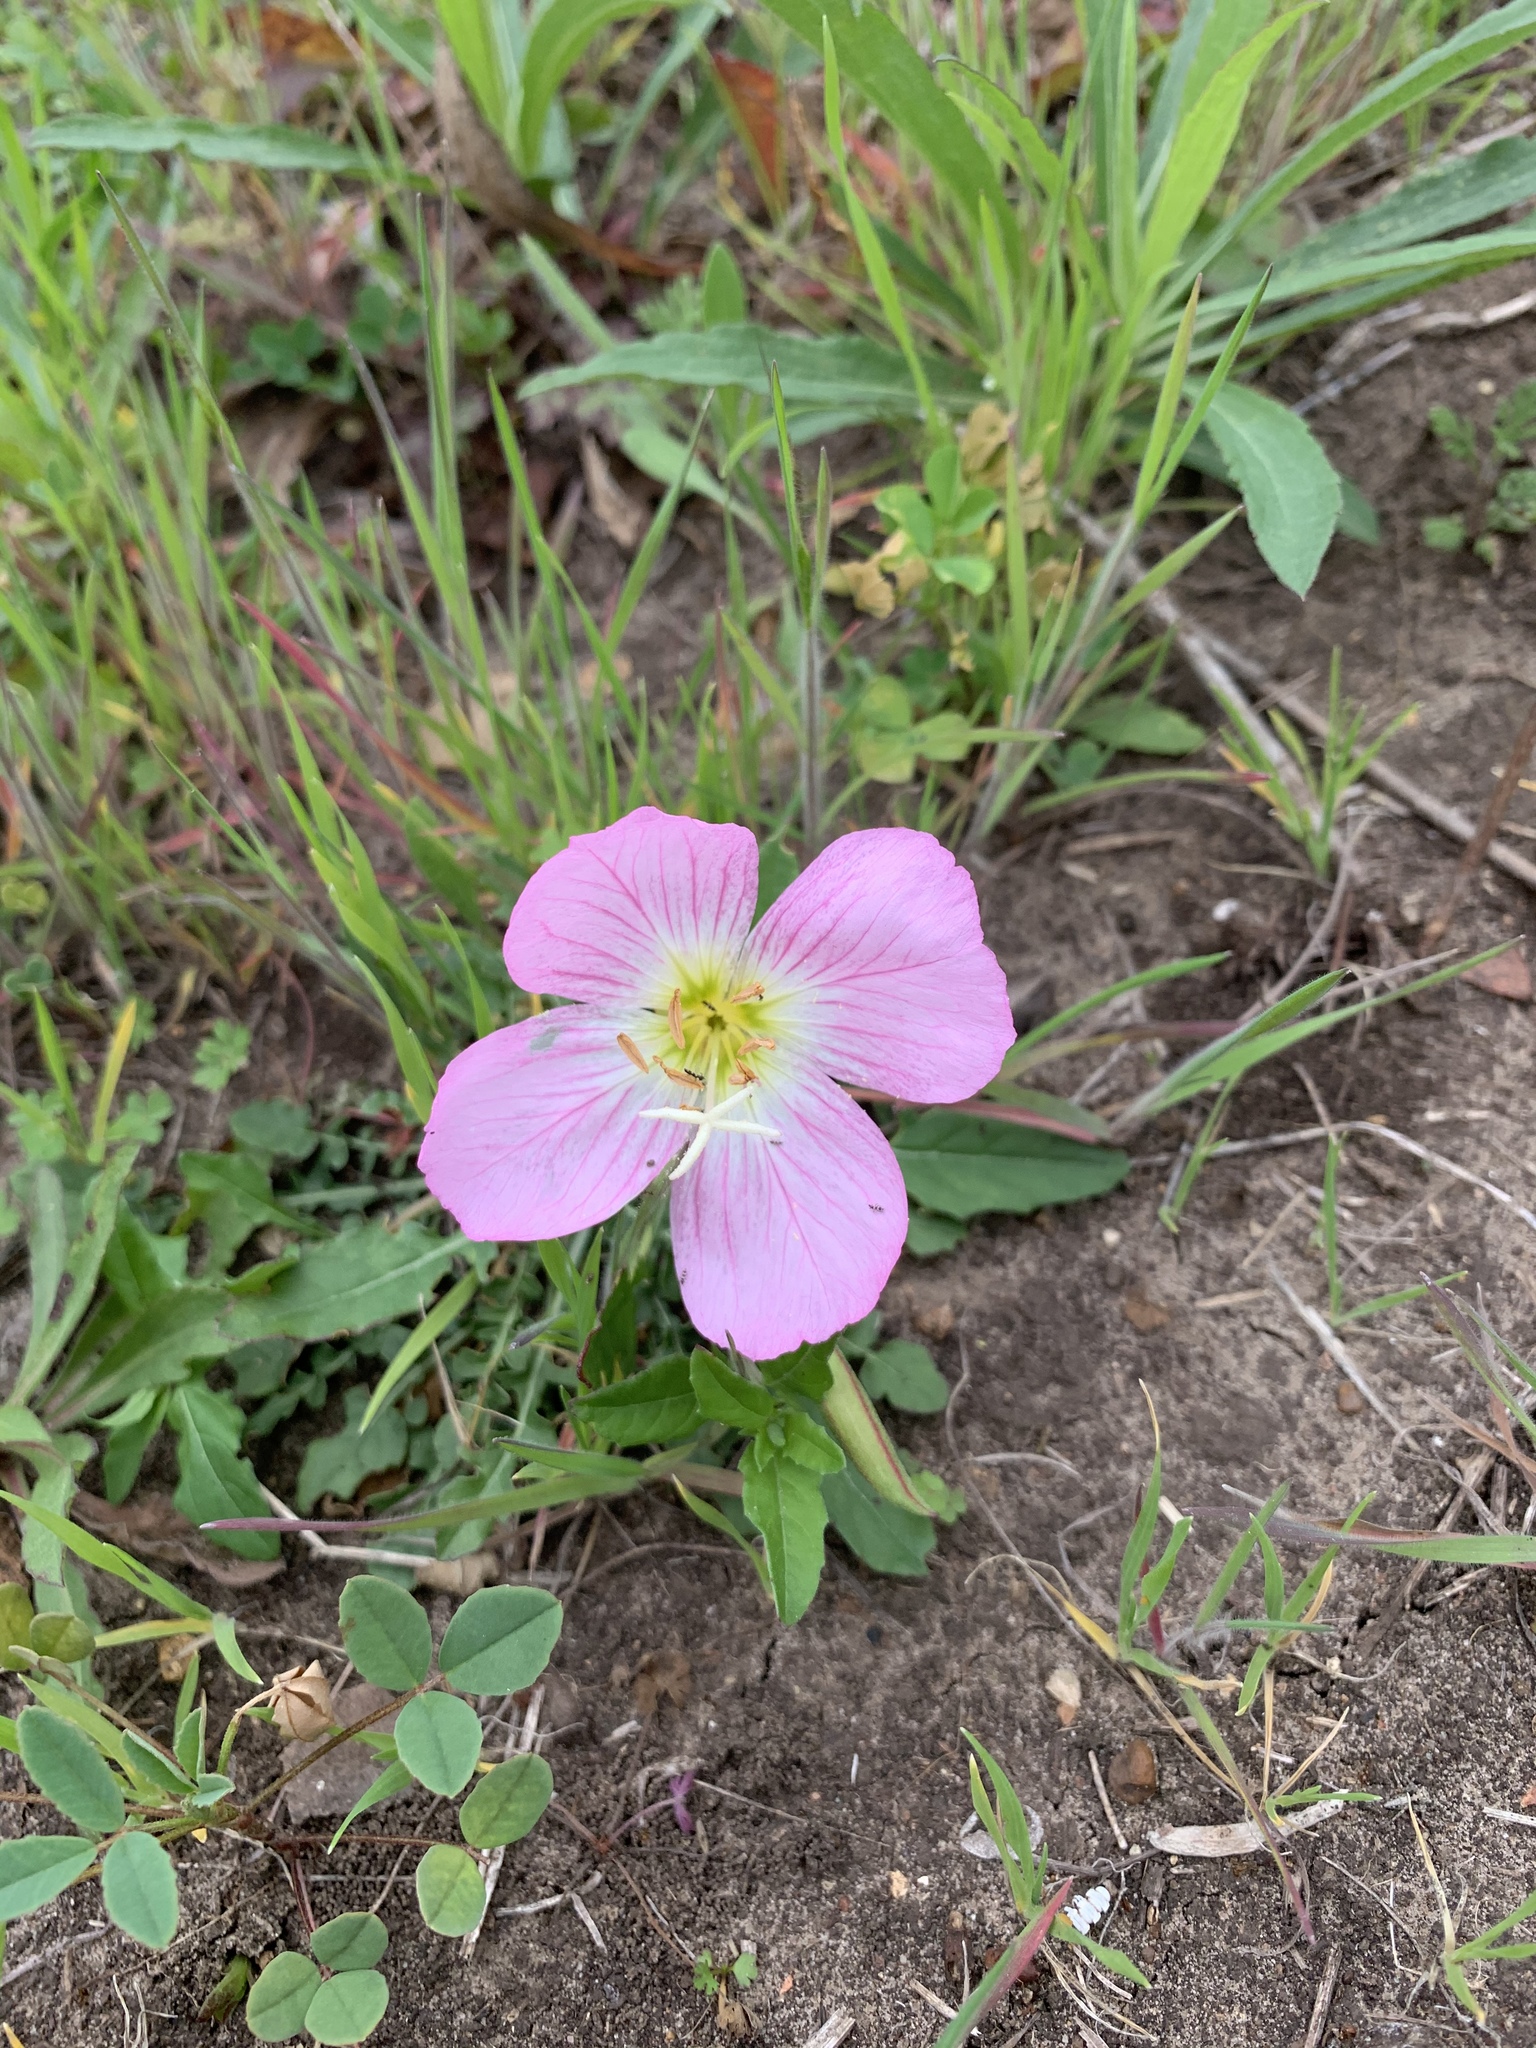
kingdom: Plantae
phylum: Tracheophyta
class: Magnoliopsida
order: Myrtales
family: Onagraceae
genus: Oenothera
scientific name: Oenothera speciosa
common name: White evening-primrose
